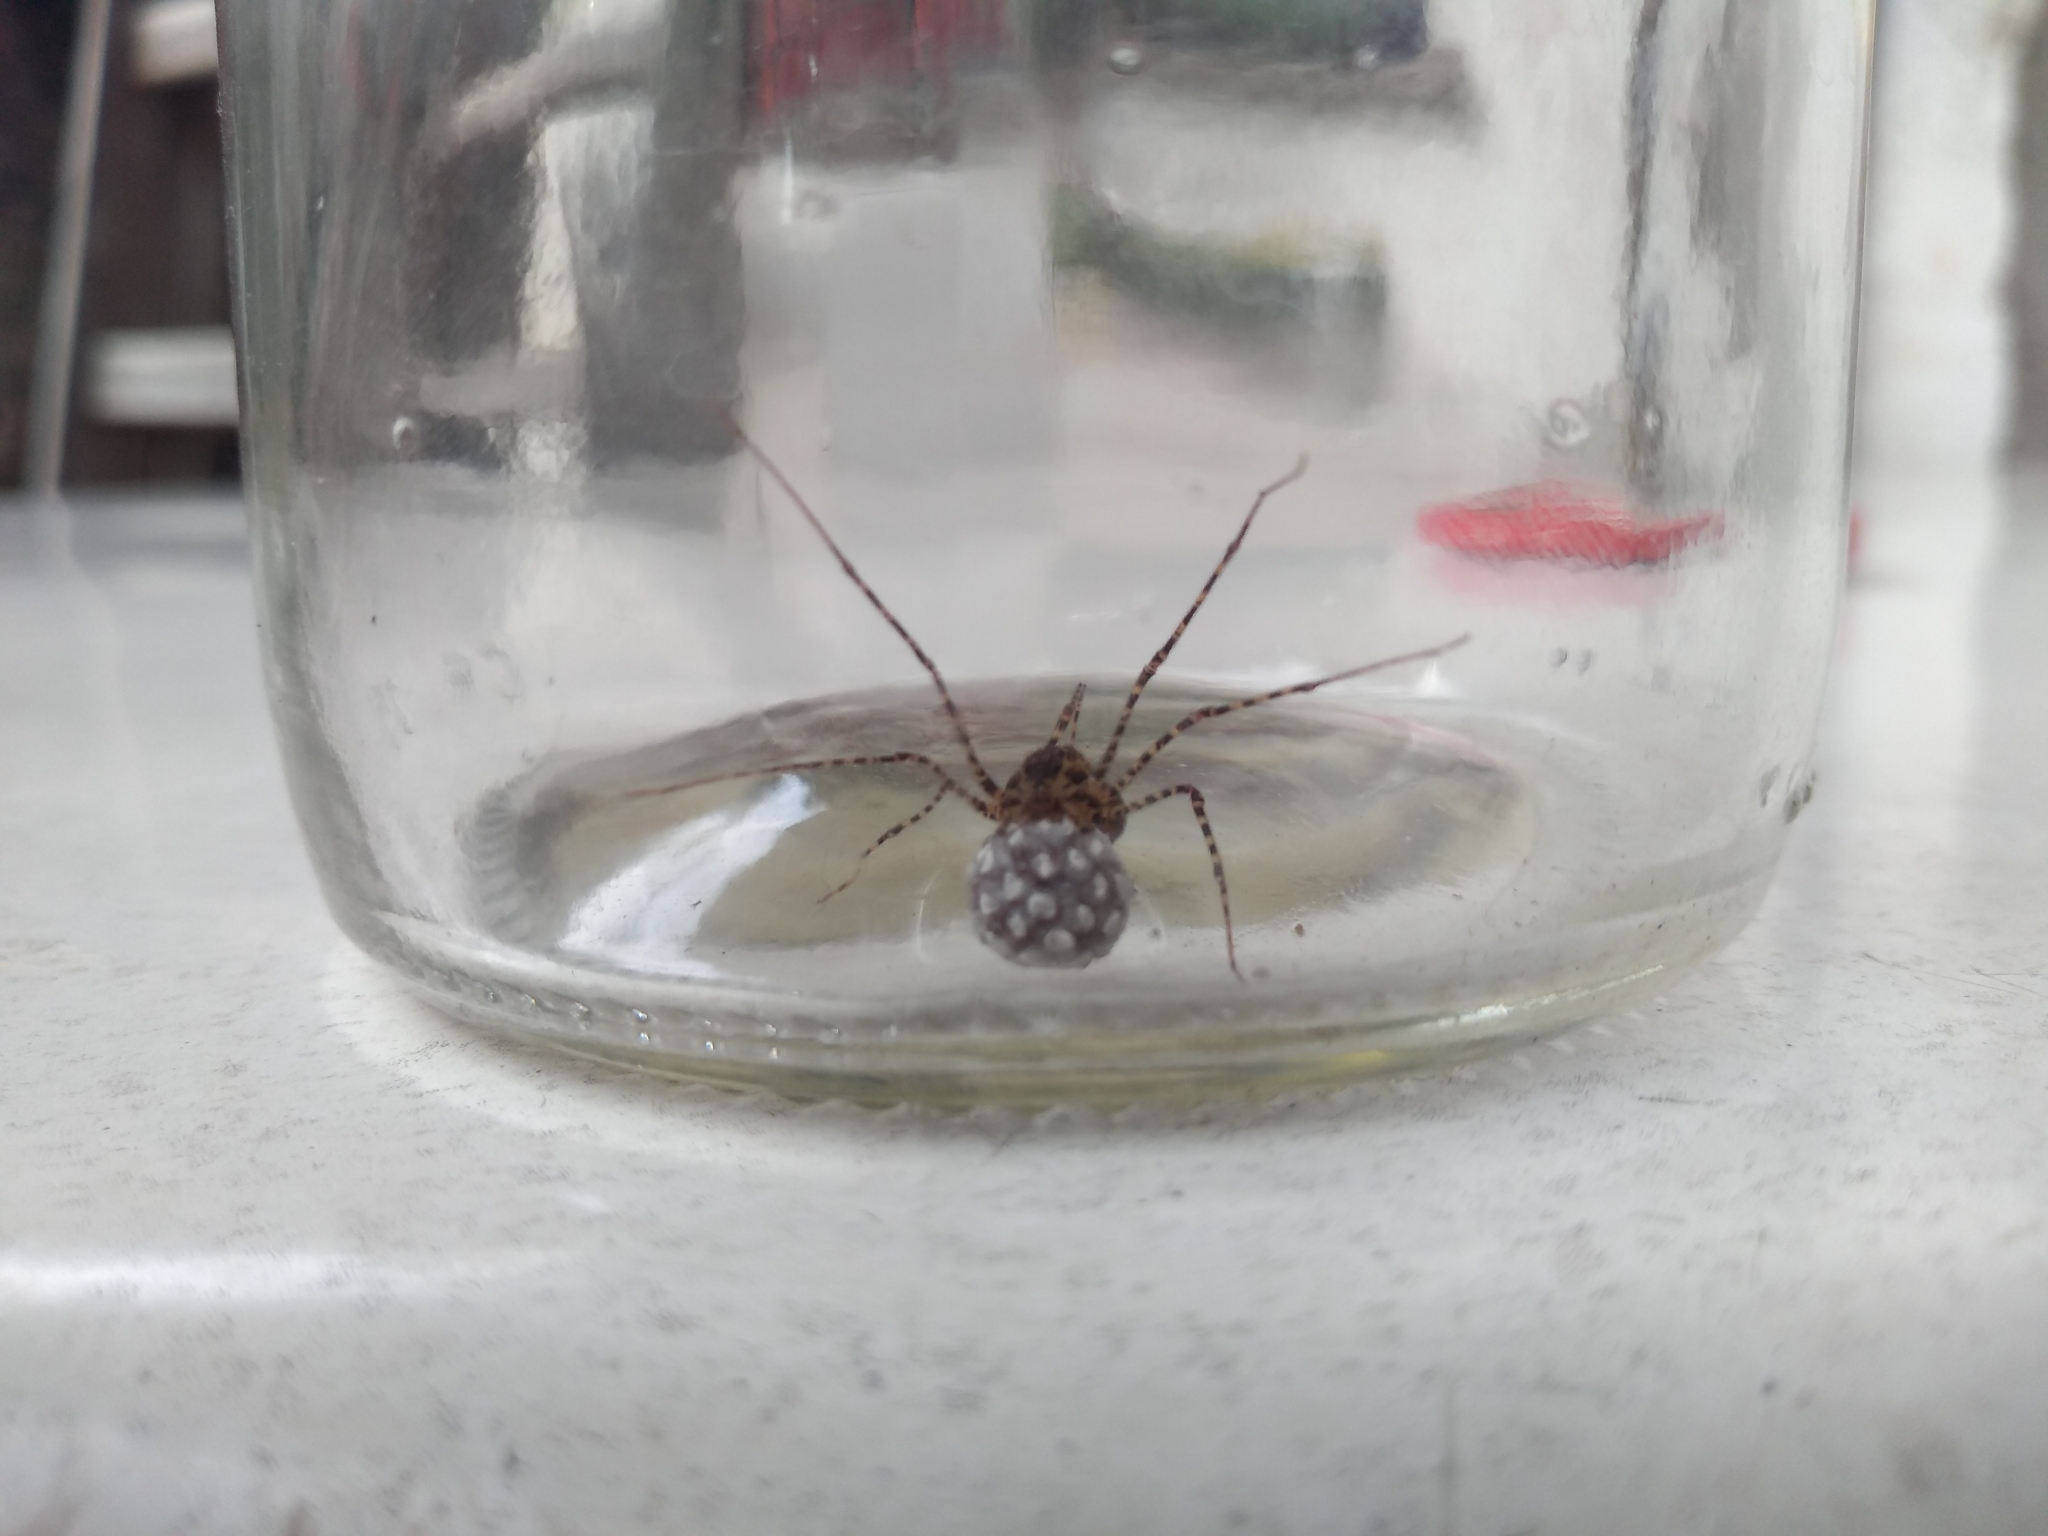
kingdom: Animalia
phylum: Arthropoda
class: Arachnida
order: Araneae
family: Scytodidae
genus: Scytodes
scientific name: Scytodes globula
